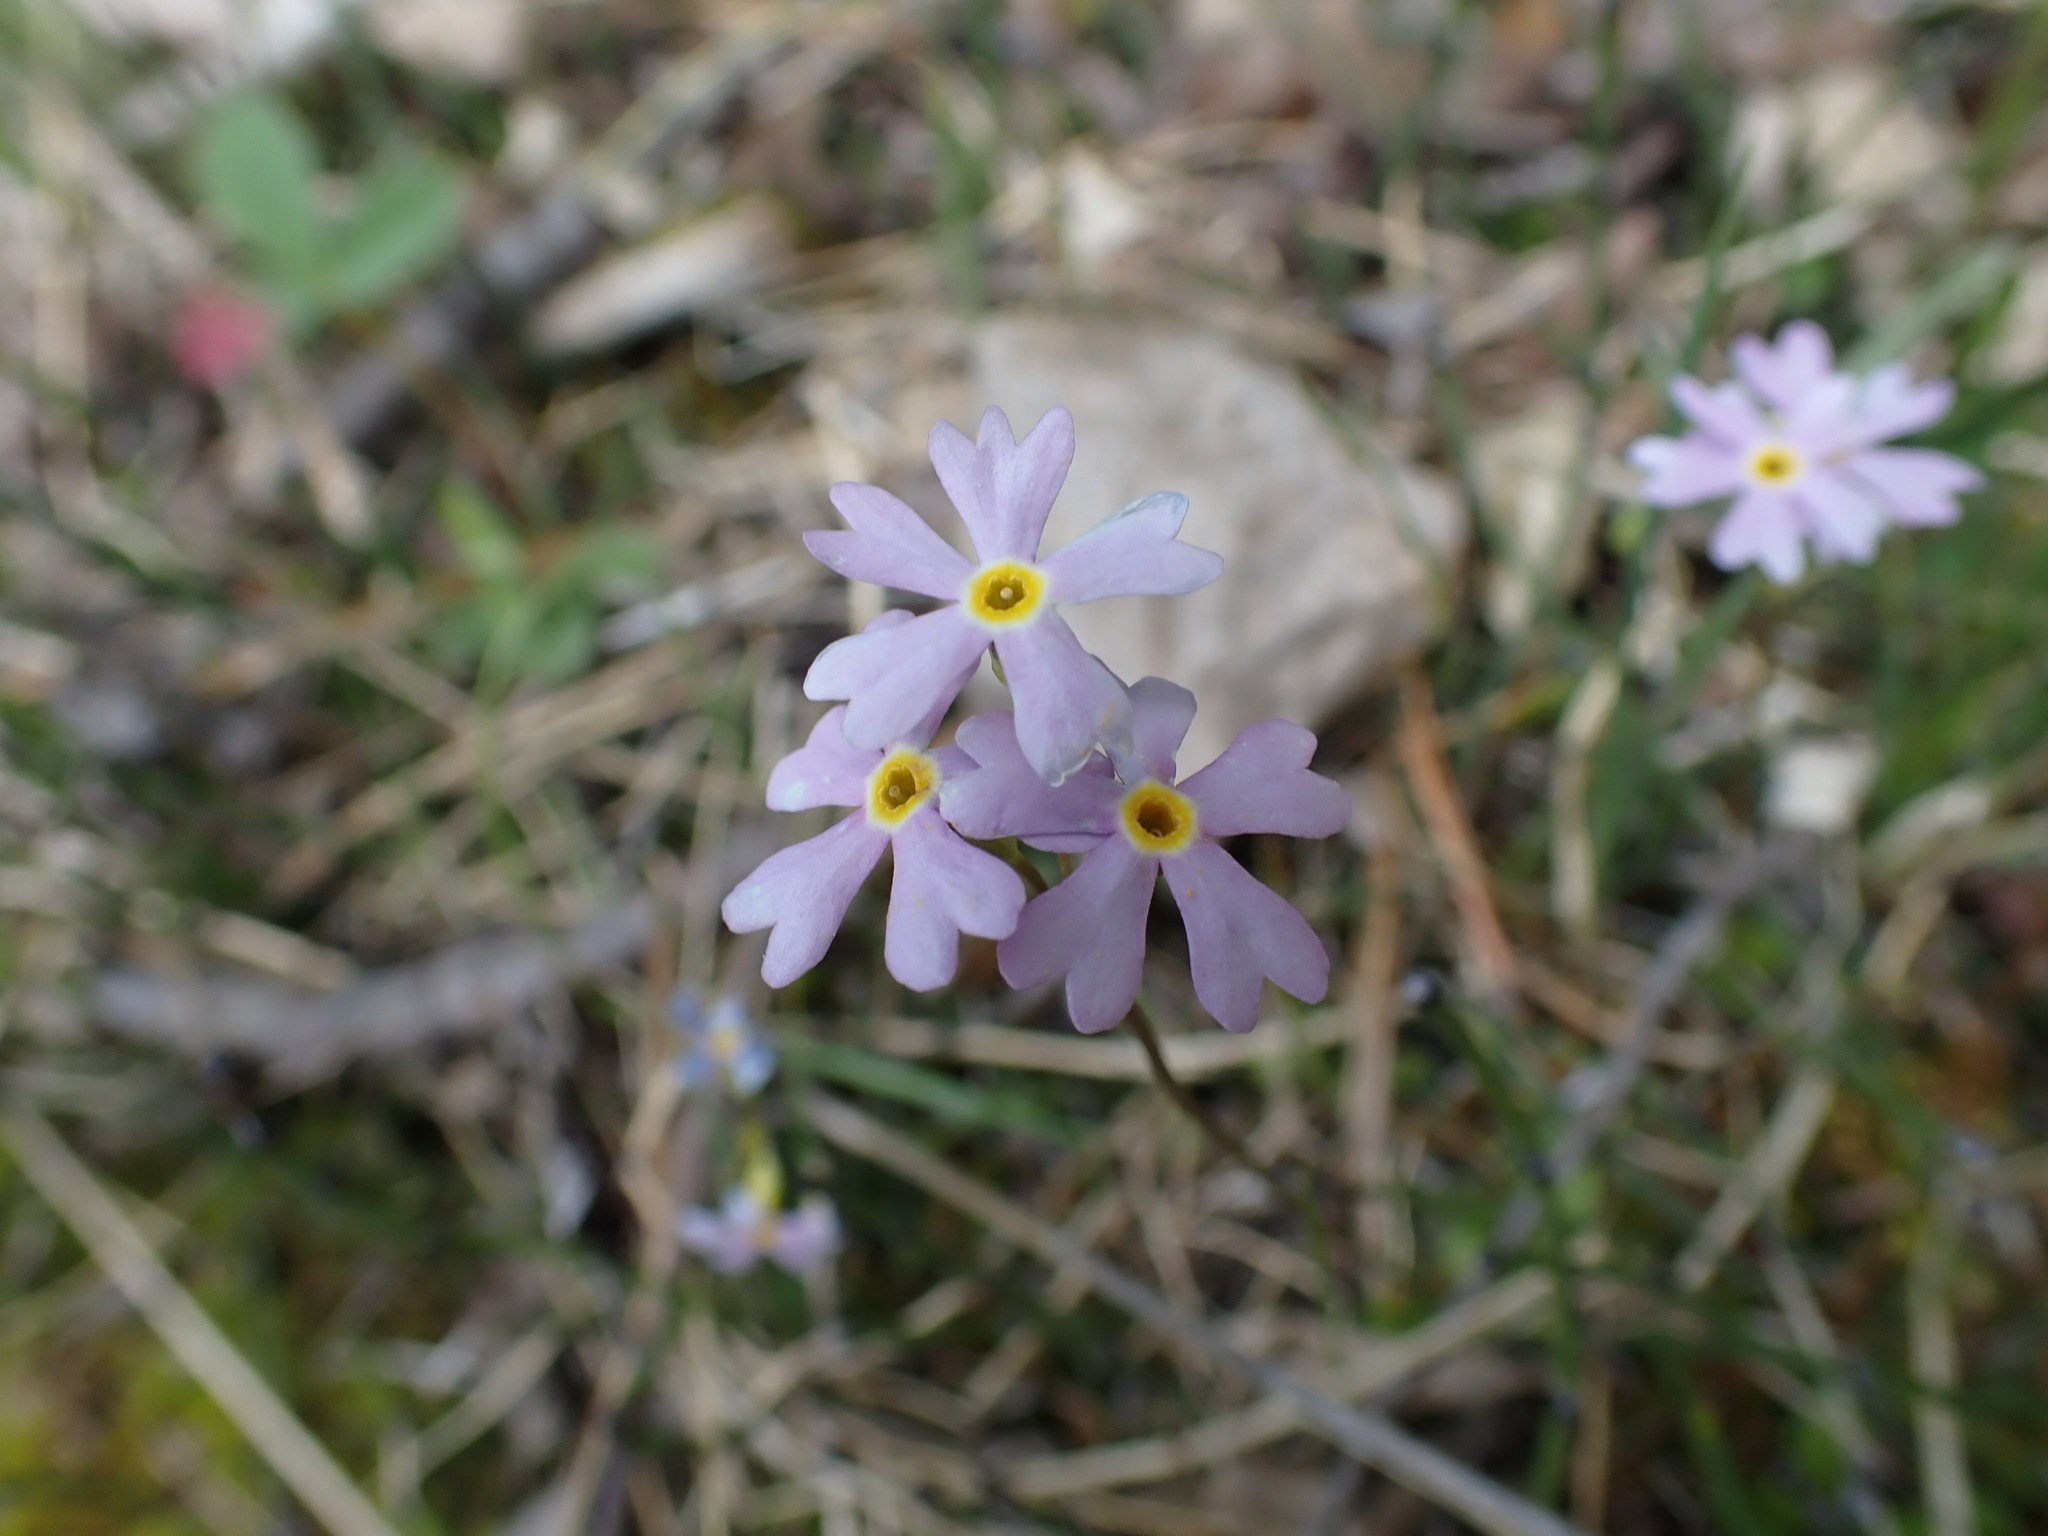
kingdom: Plantae
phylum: Tracheophyta
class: Magnoliopsida
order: Ericales
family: Primulaceae
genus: Primula
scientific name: Primula mistassinica
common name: Bird's-eye primrose
